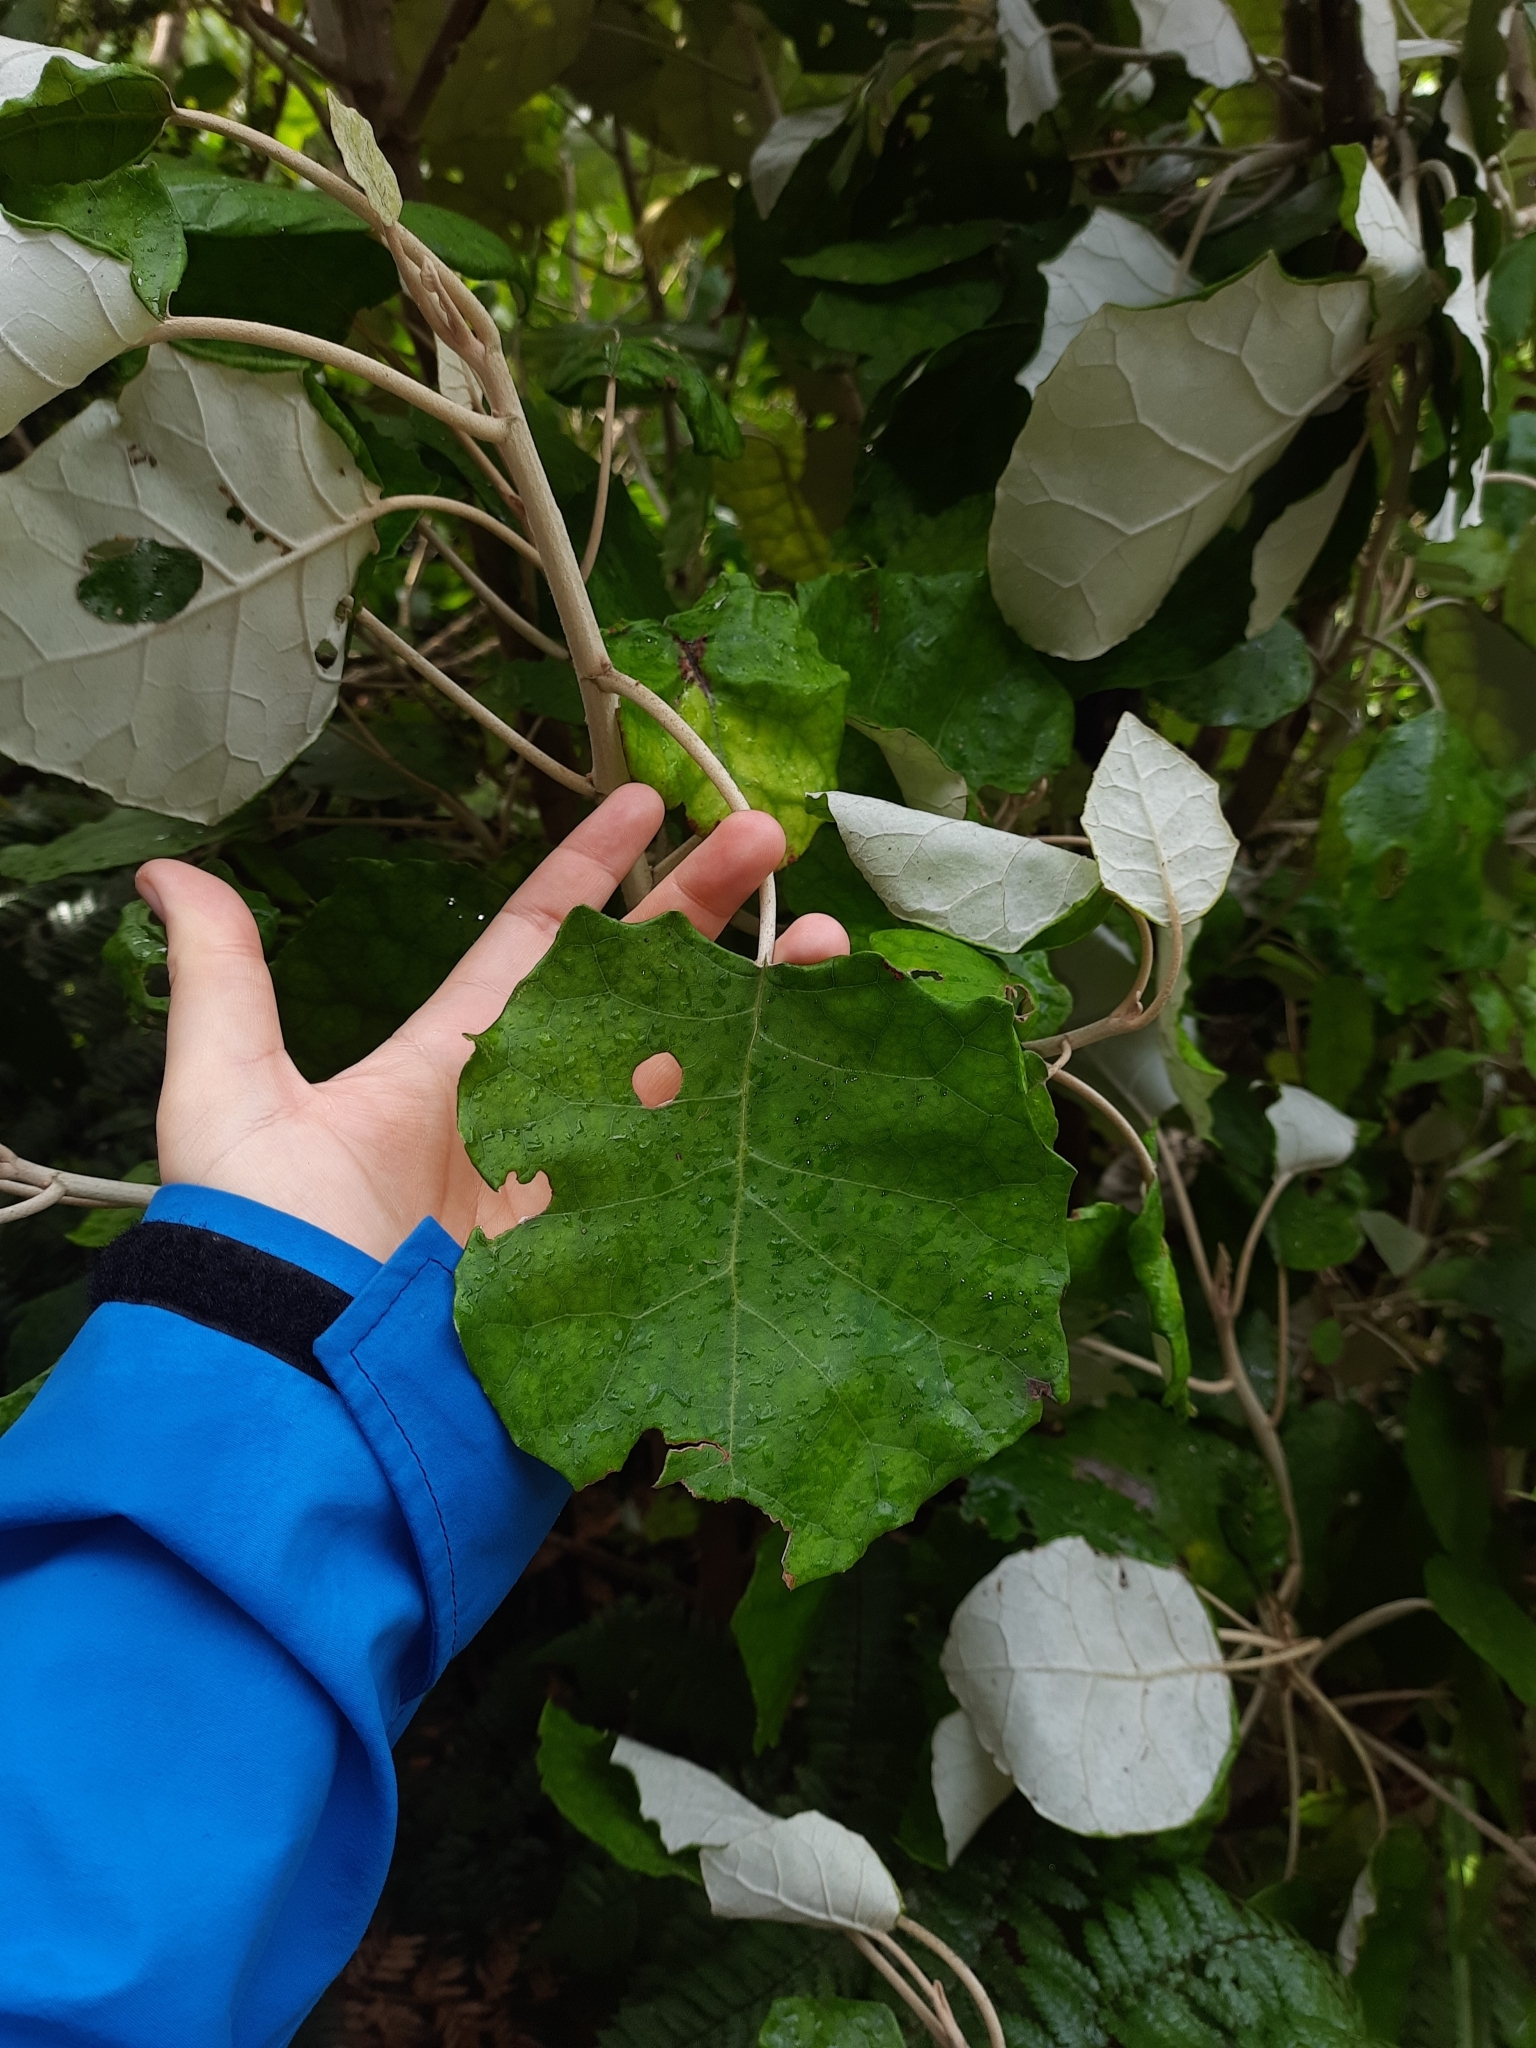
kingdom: Plantae
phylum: Tracheophyta
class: Magnoliopsida
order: Asterales
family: Asteraceae
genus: Brachyglottis
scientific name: Brachyglottis repanda
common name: Hedge ragwort
